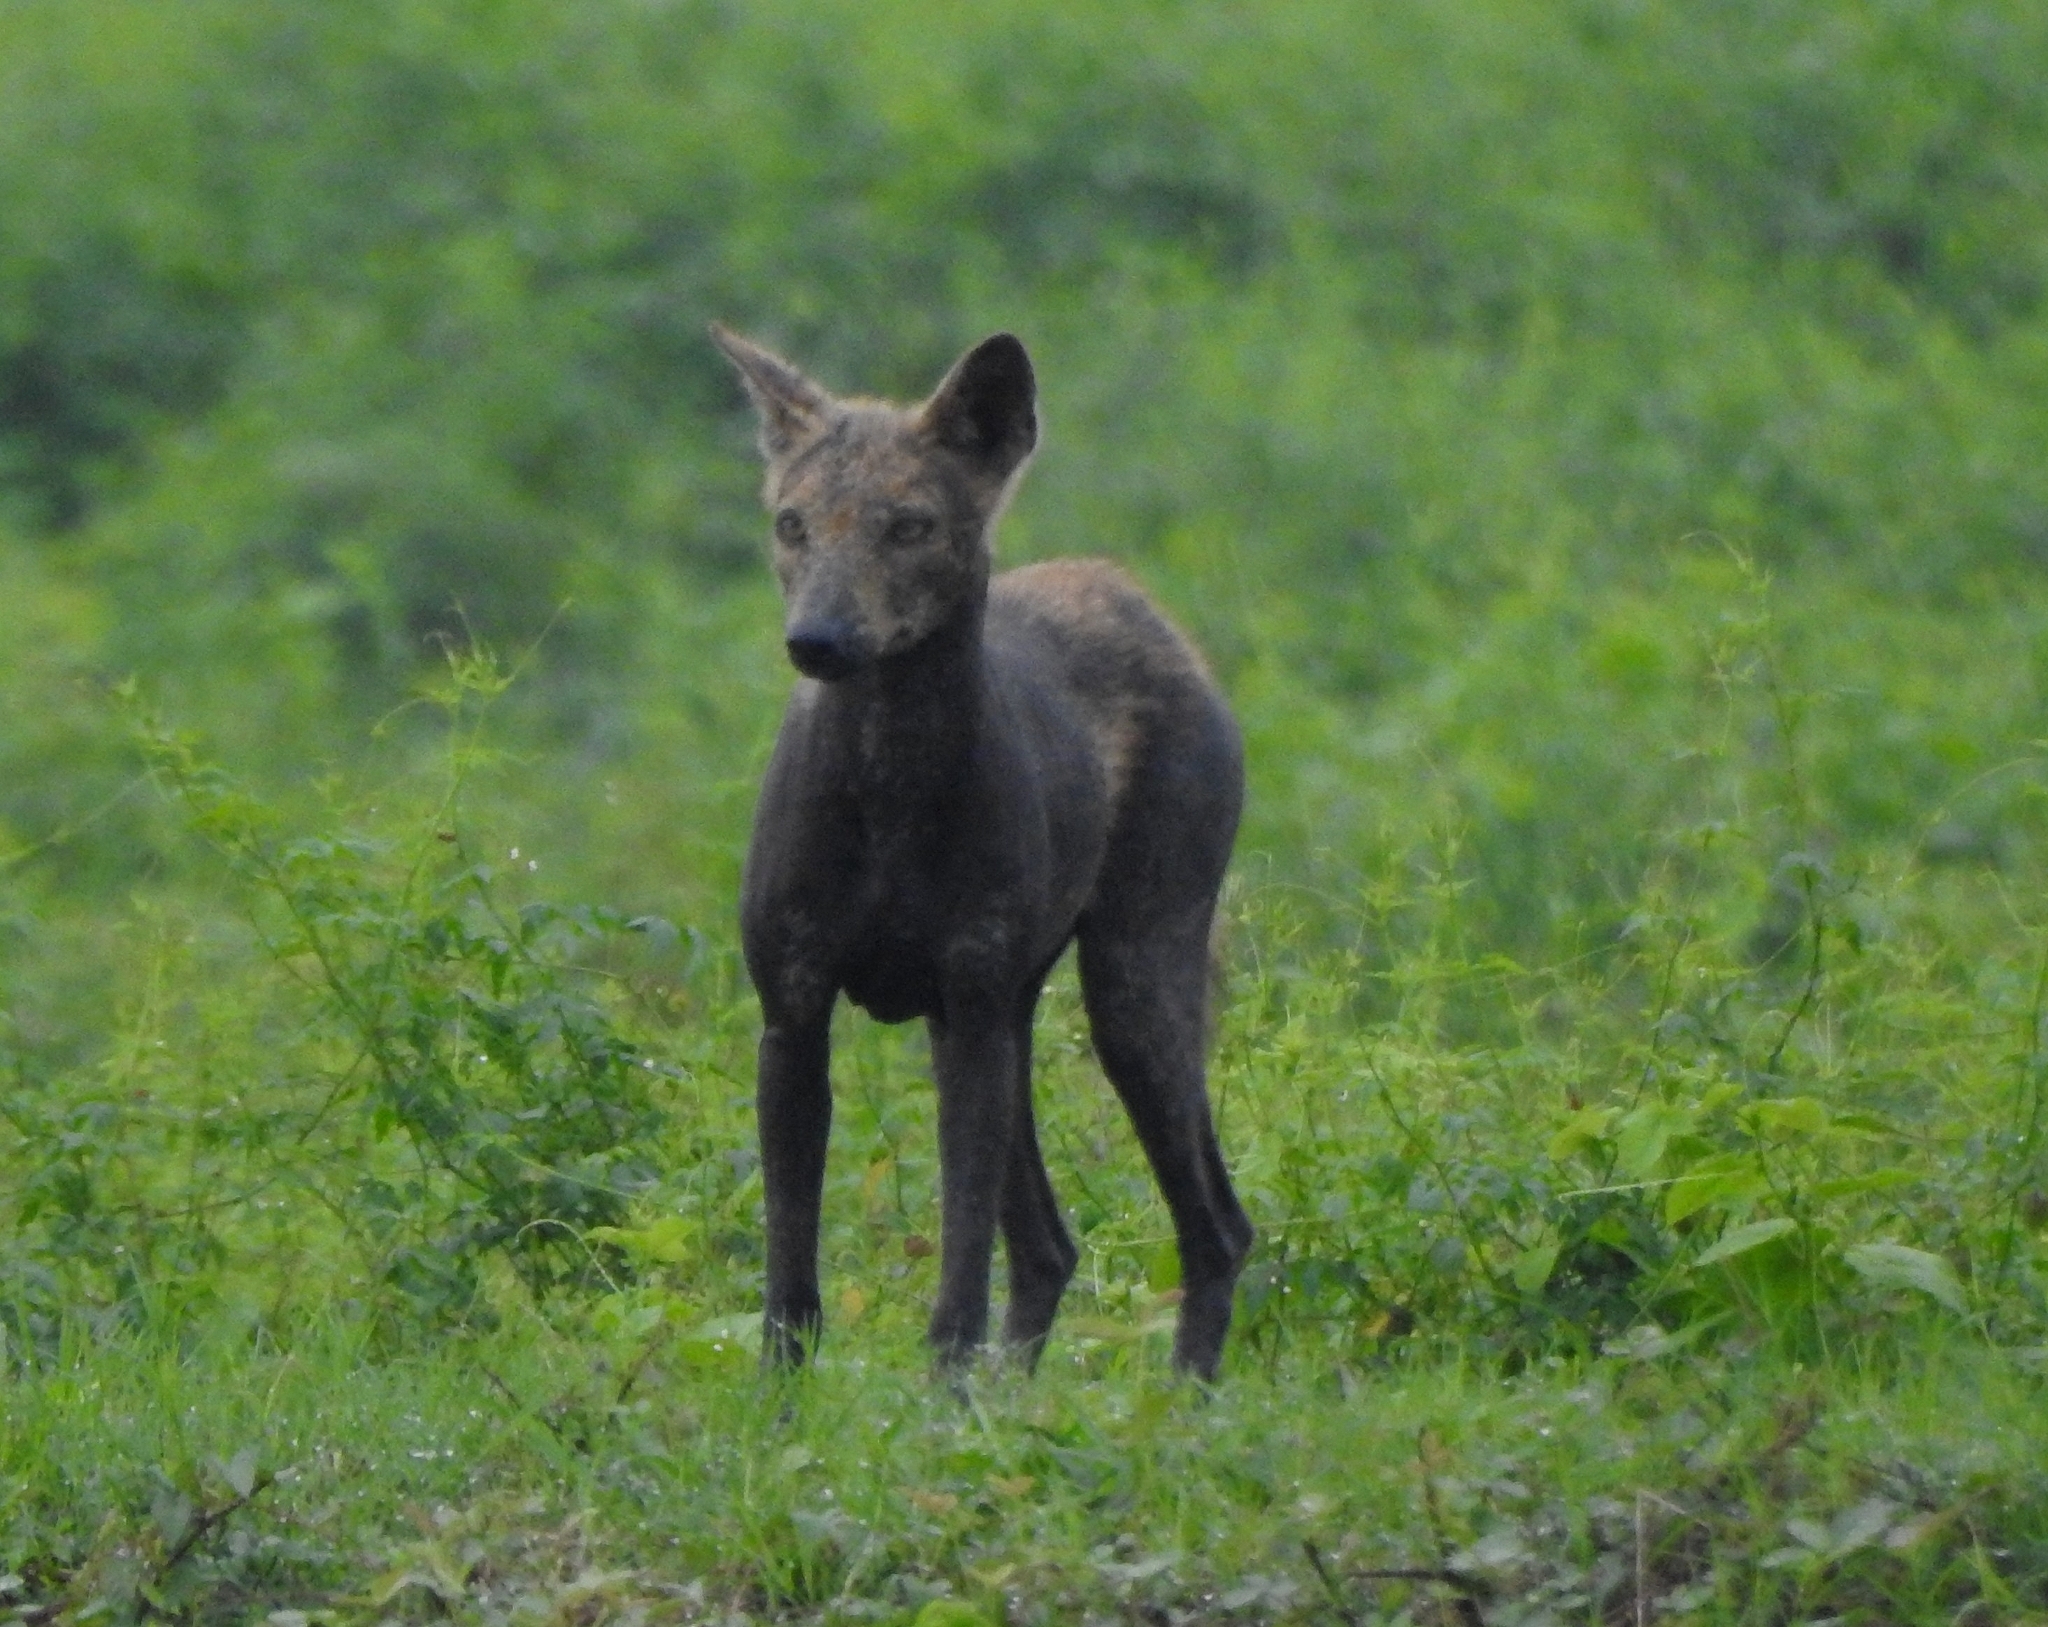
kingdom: Animalia
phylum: Chordata
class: Mammalia
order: Carnivora
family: Canidae
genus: Canis
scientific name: Canis lupus
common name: Gray wolf
